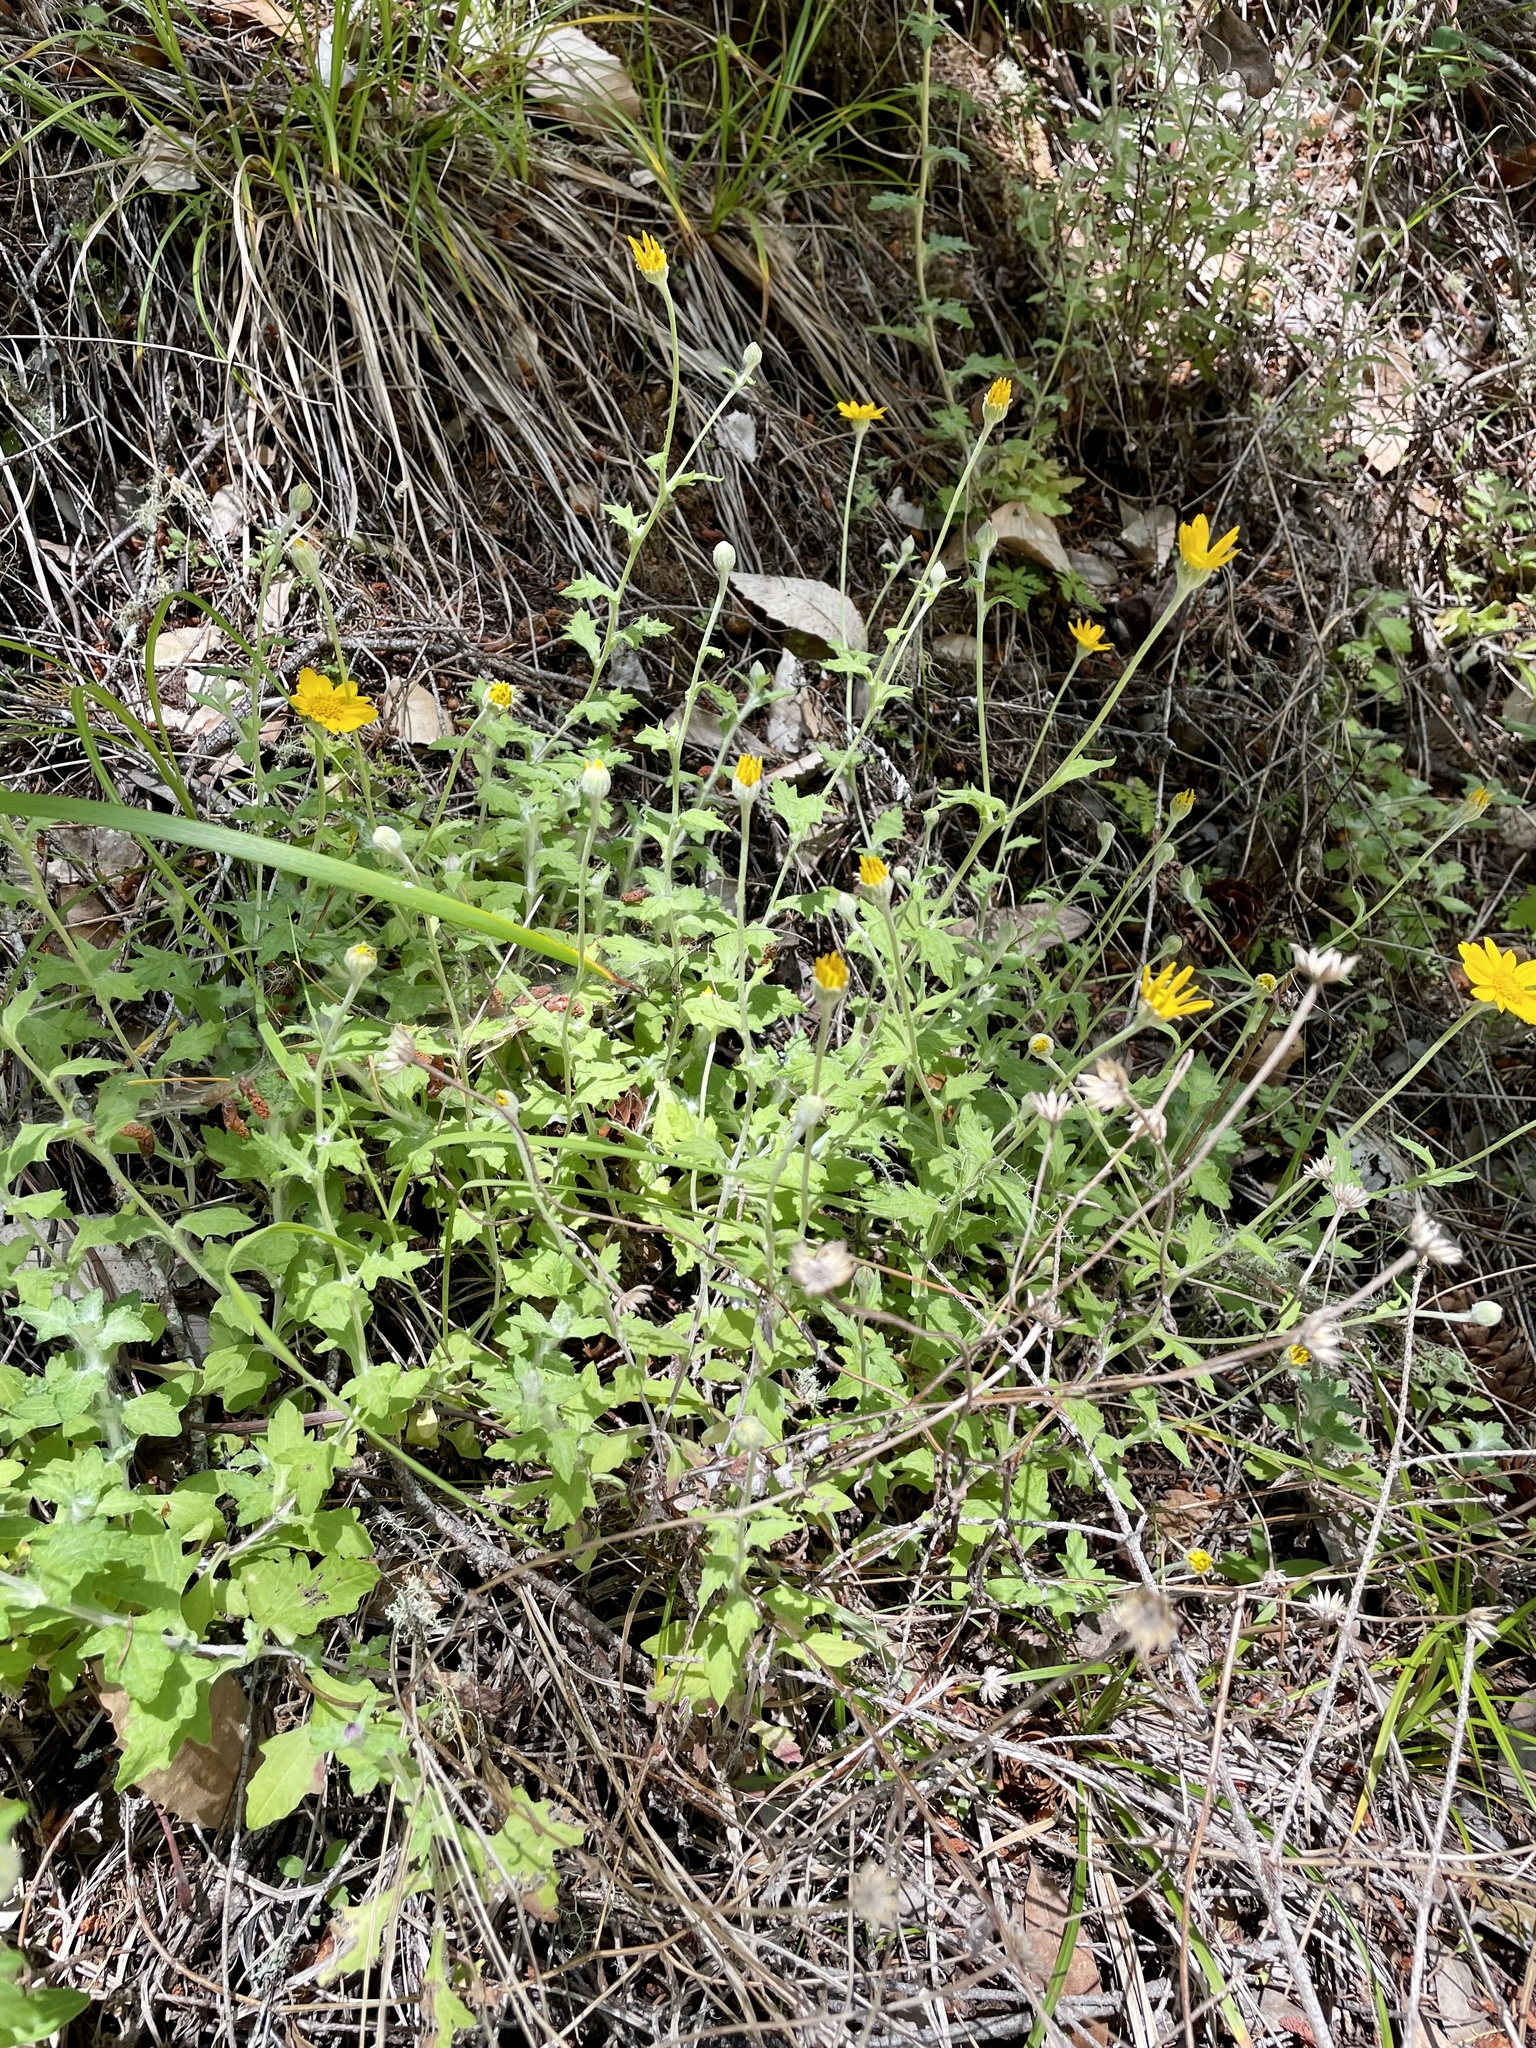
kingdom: Plantae
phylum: Tracheophyta
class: Magnoliopsida
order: Asterales
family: Asteraceae
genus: Eriophyllum
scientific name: Eriophyllum lanatum
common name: Common woolly-sunflower
